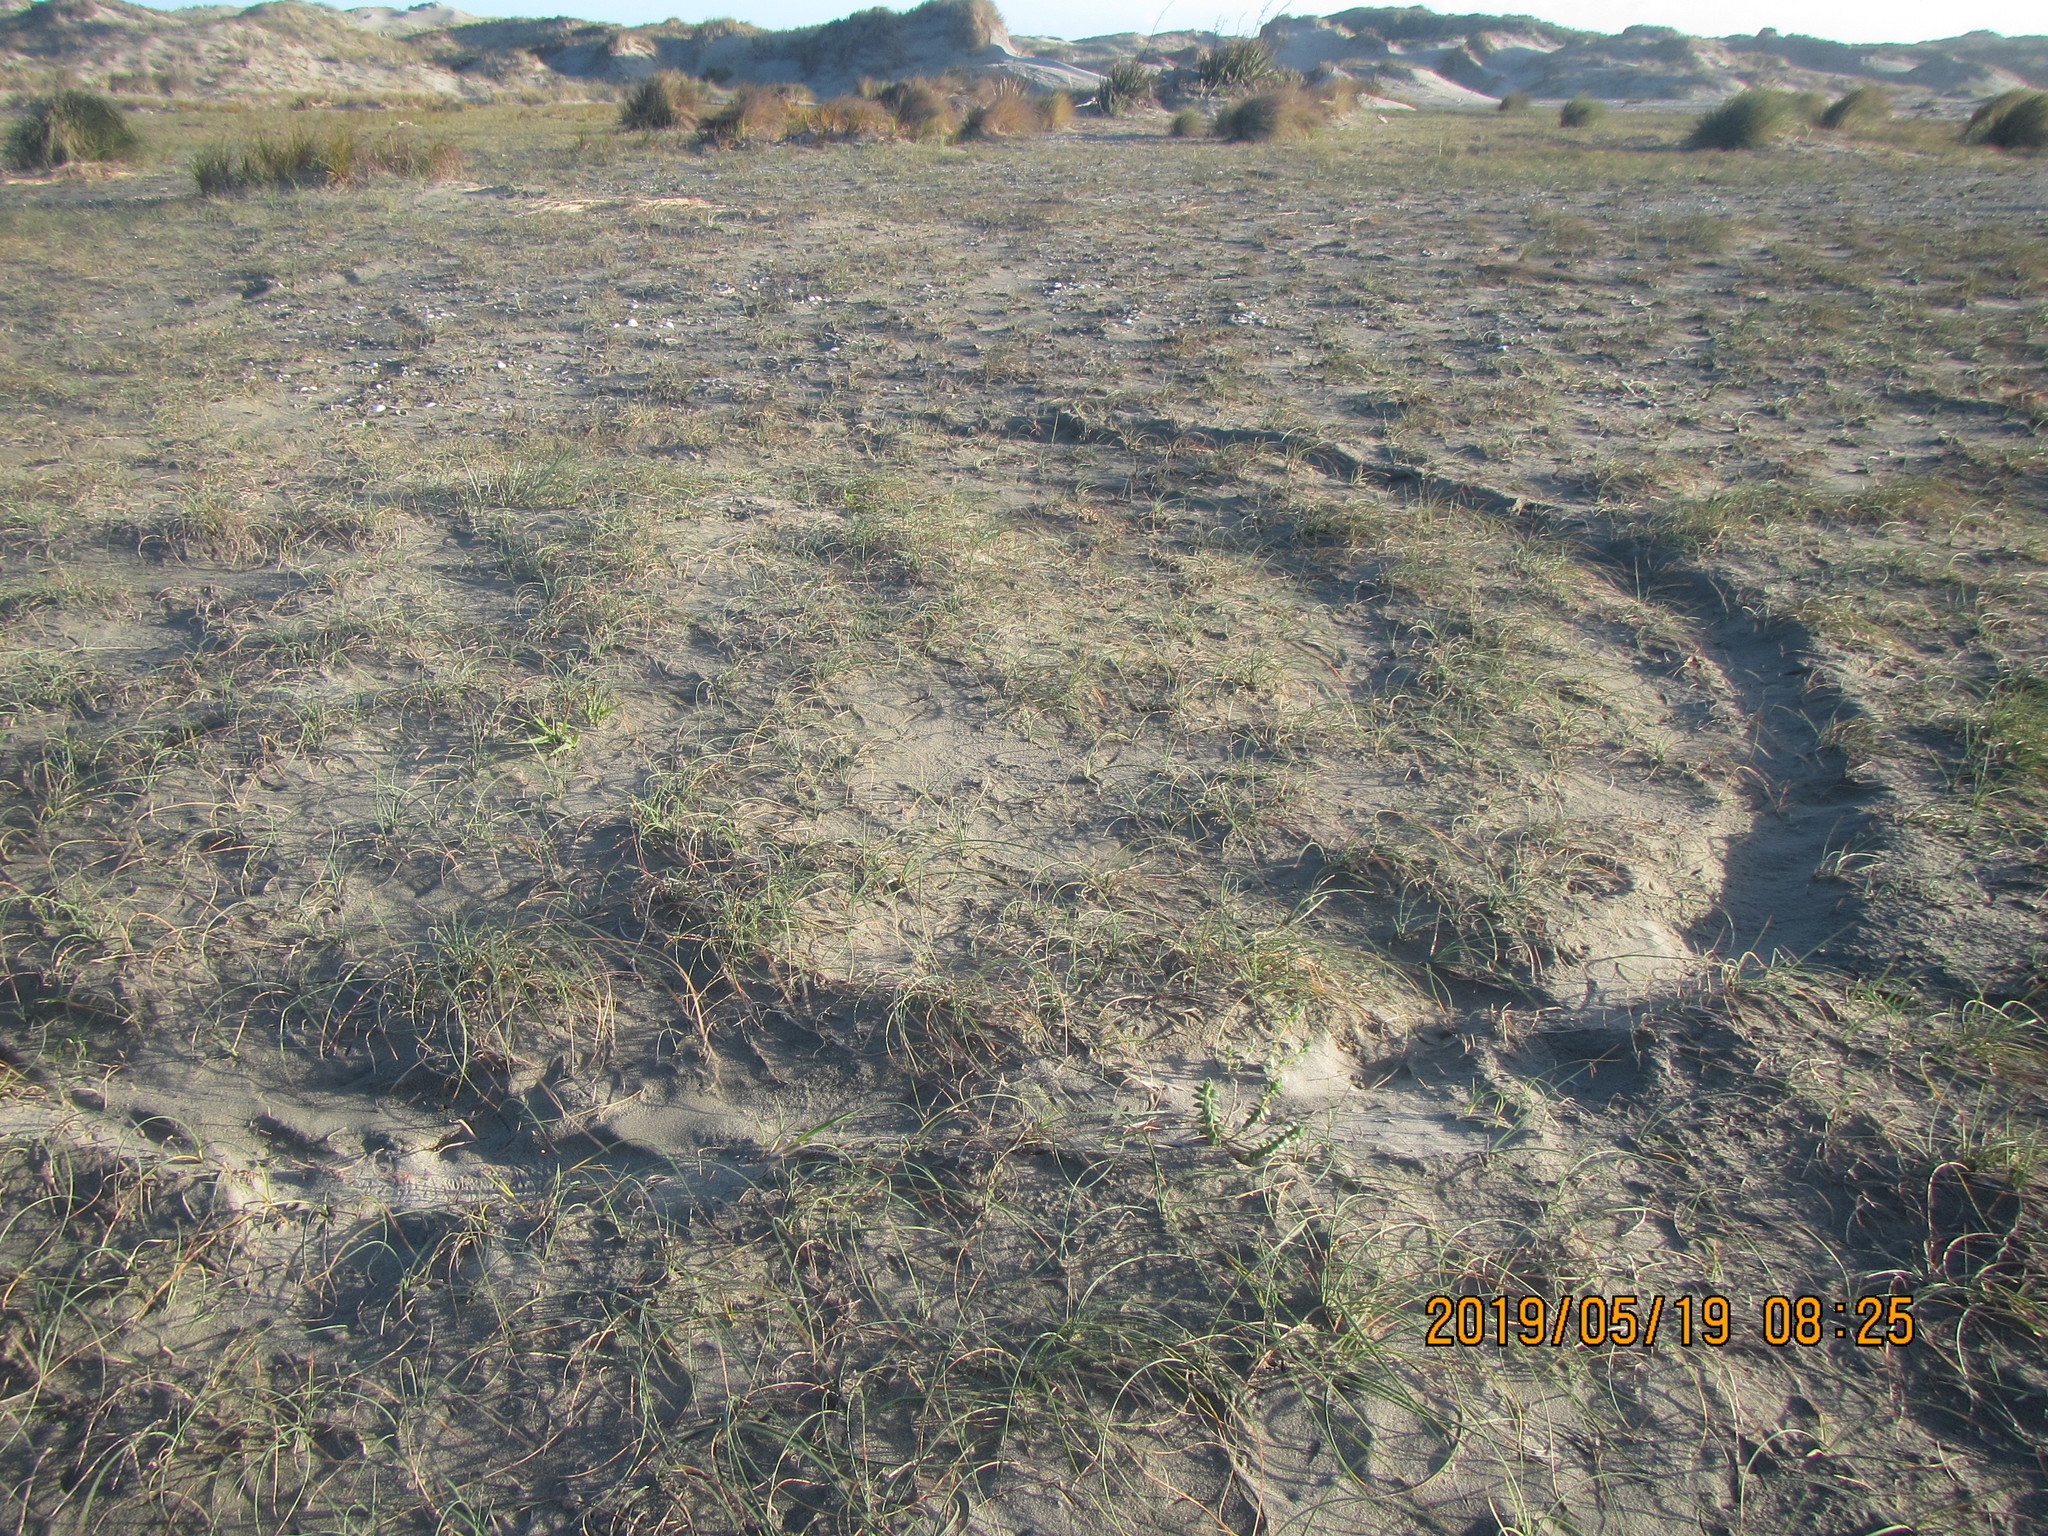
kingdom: Plantae
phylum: Tracheophyta
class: Magnoliopsida
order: Malvales
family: Thymelaeaceae
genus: Pimelea
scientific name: Pimelea villosa
